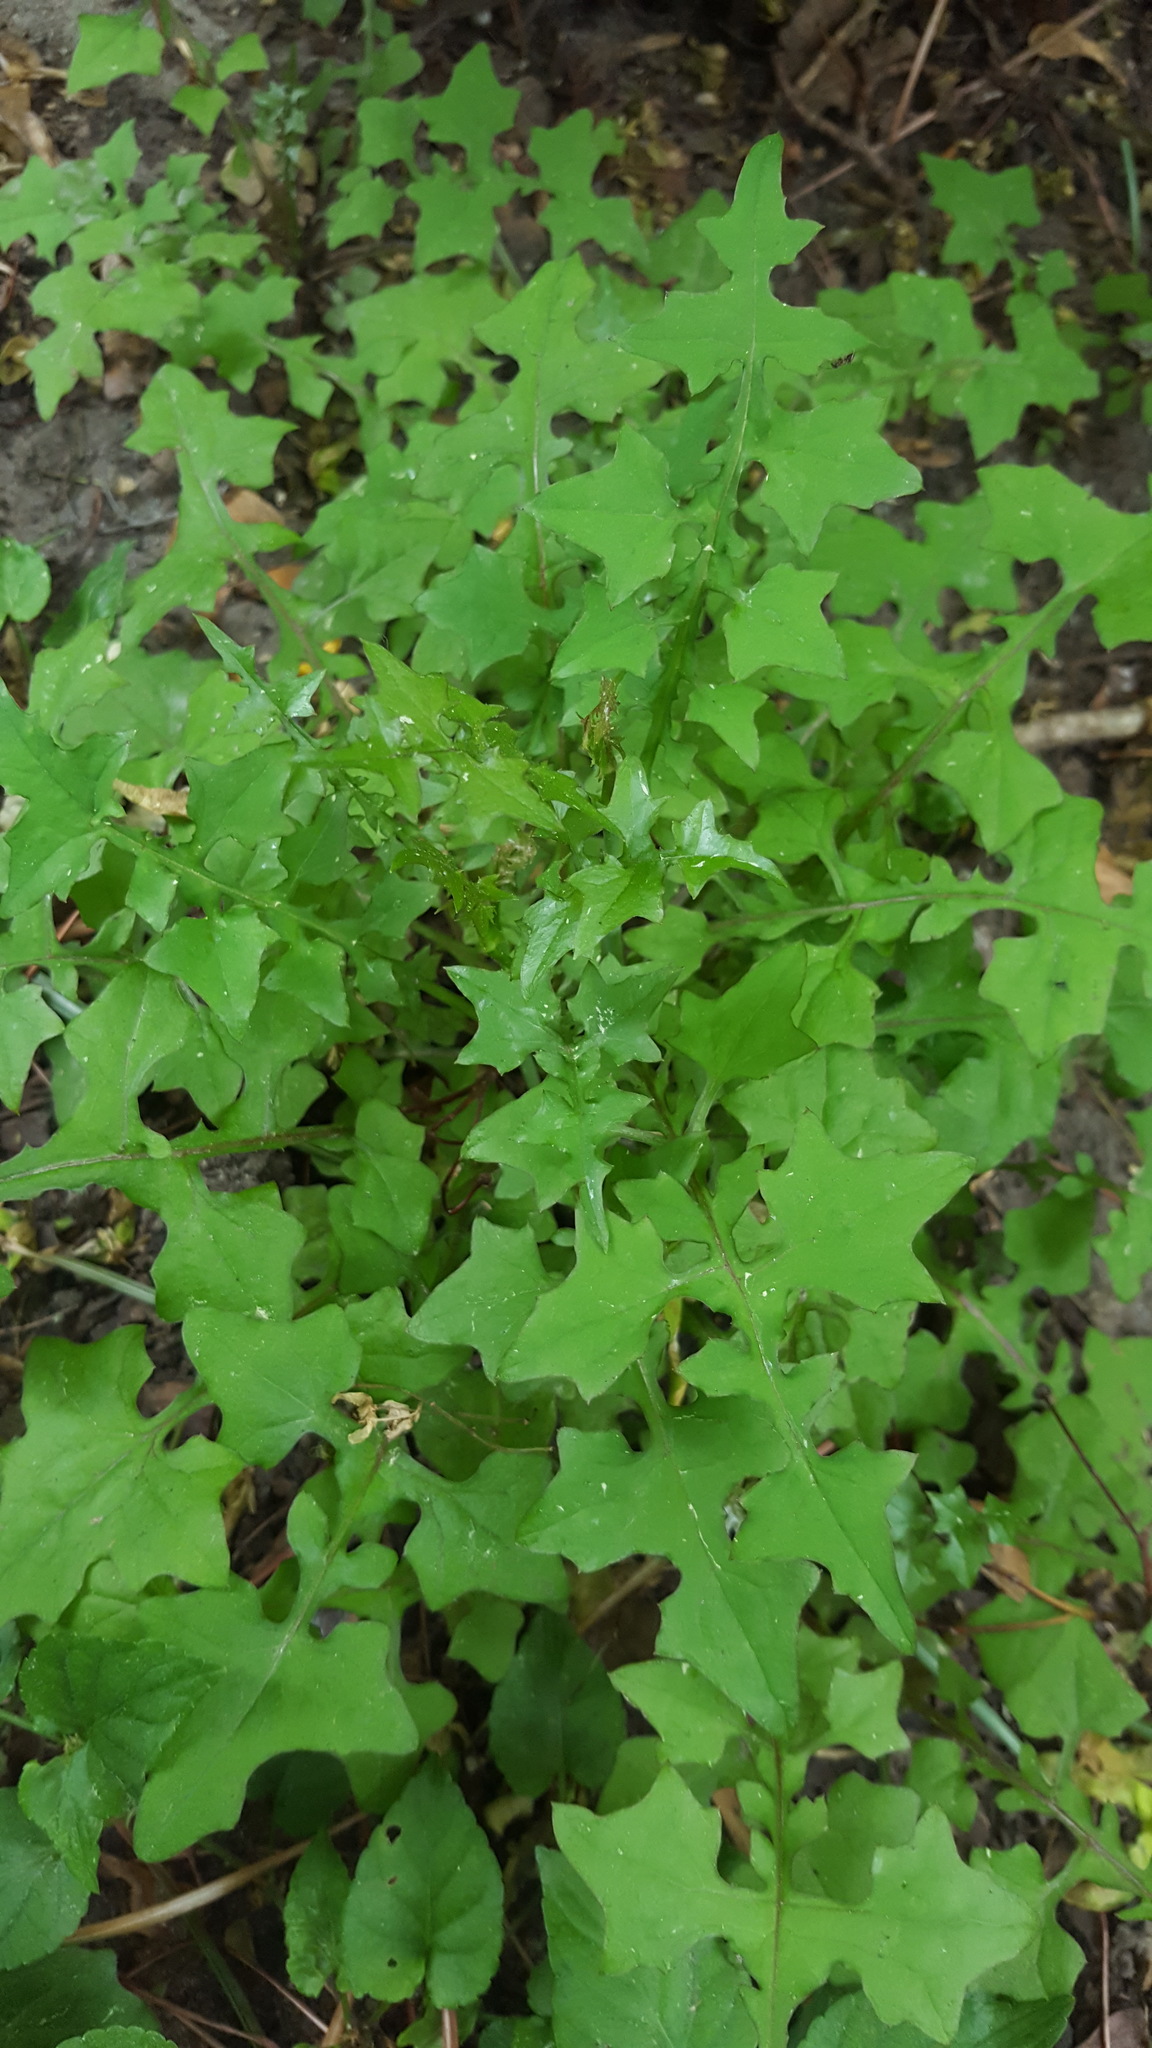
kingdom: Plantae
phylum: Tracheophyta
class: Magnoliopsida
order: Asterales
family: Asteraceae
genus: Mycelis
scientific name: Mycelis muralis
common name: Wall lettuce
